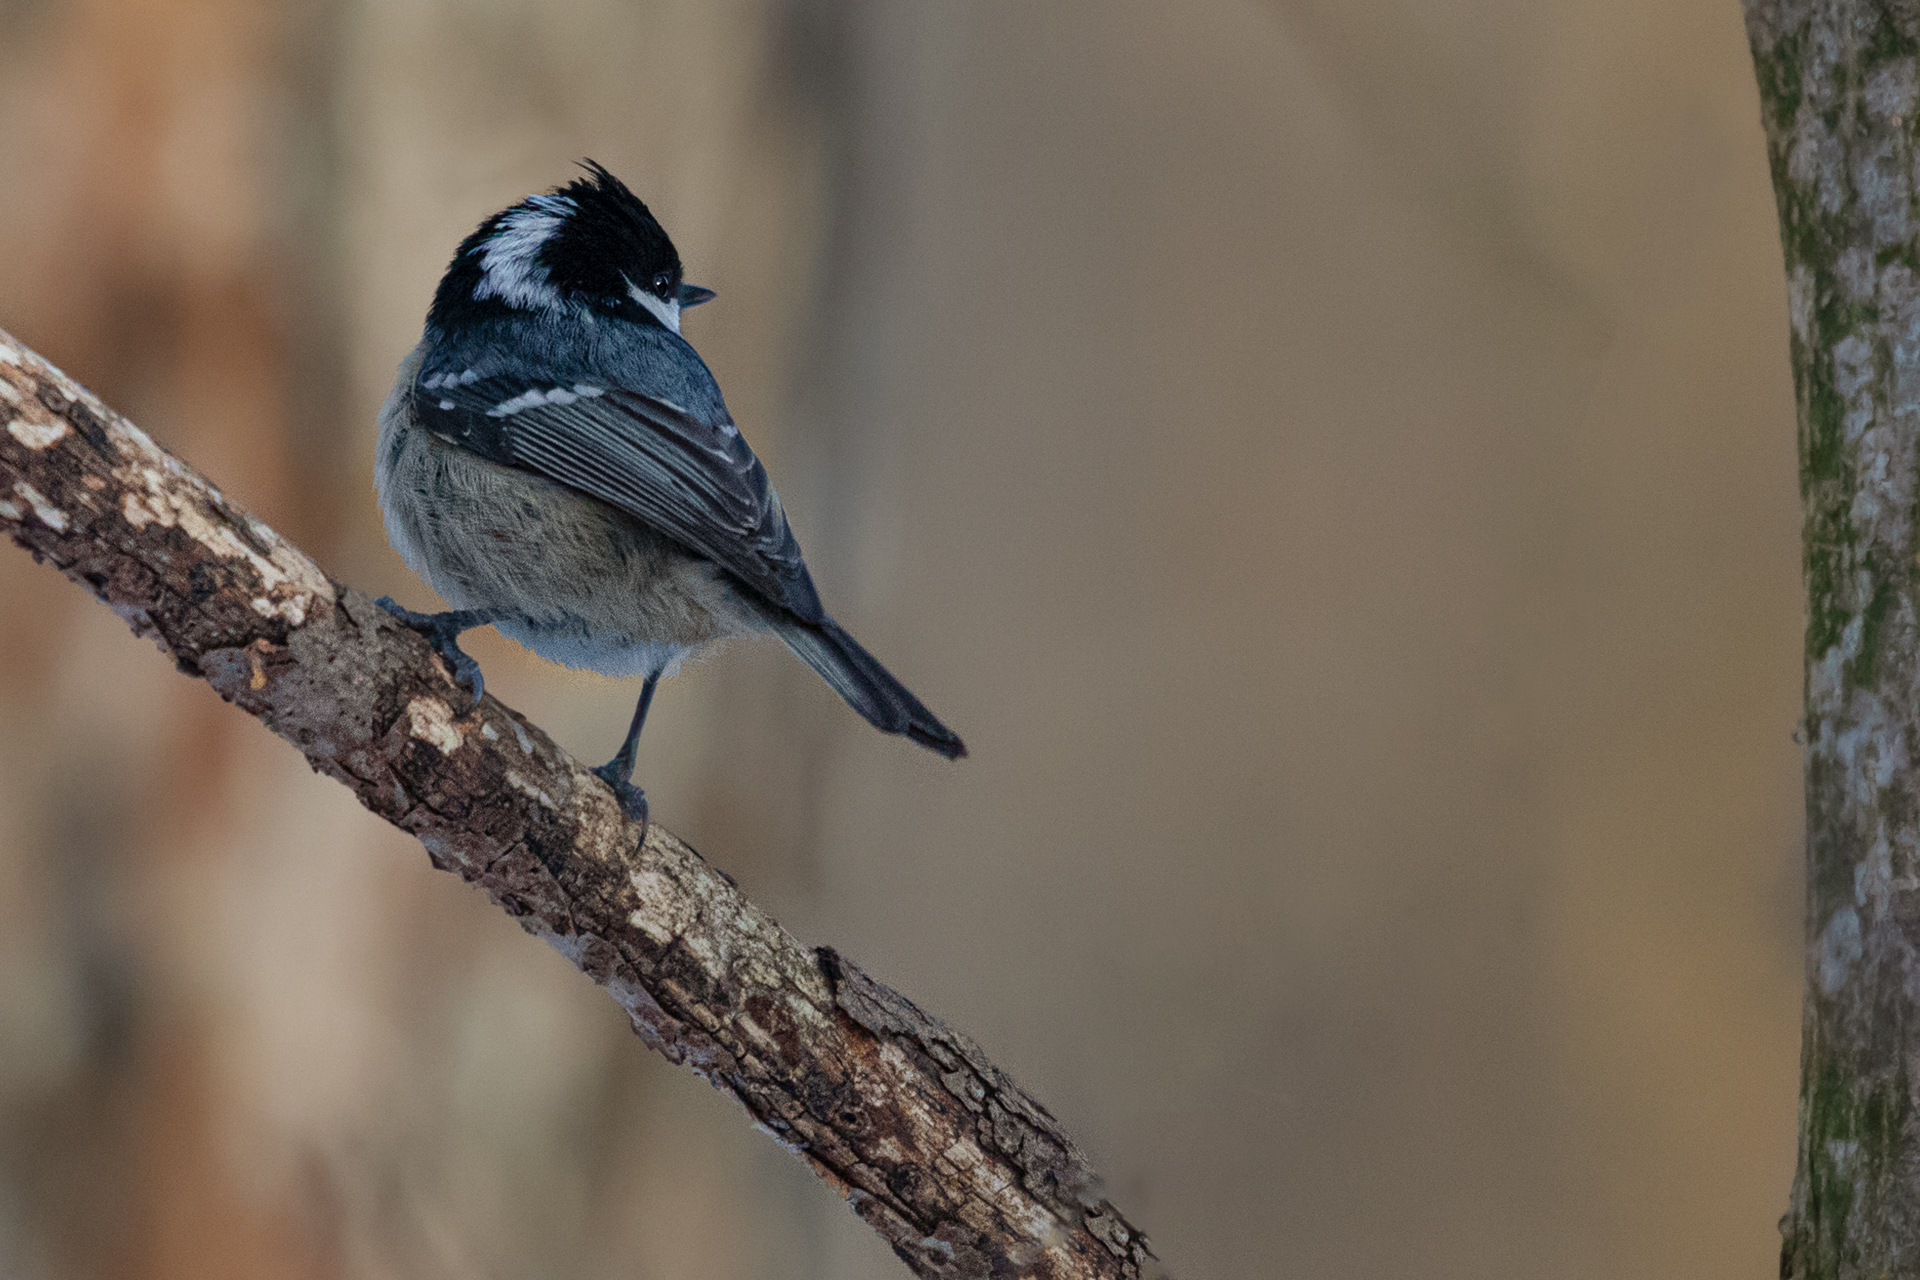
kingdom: Animalia
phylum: Chordata
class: Aves
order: Passeriformes
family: Paridae
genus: Periparus
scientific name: Periparus ater
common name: Coal tit
